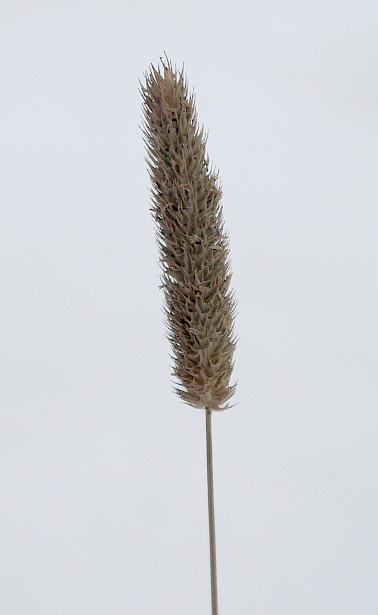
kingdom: Plantae
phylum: Tracheophyta
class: Liliopsida
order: Poales
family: Poaceae
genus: Phleum
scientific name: Phleum pratense
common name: Timothy grass
